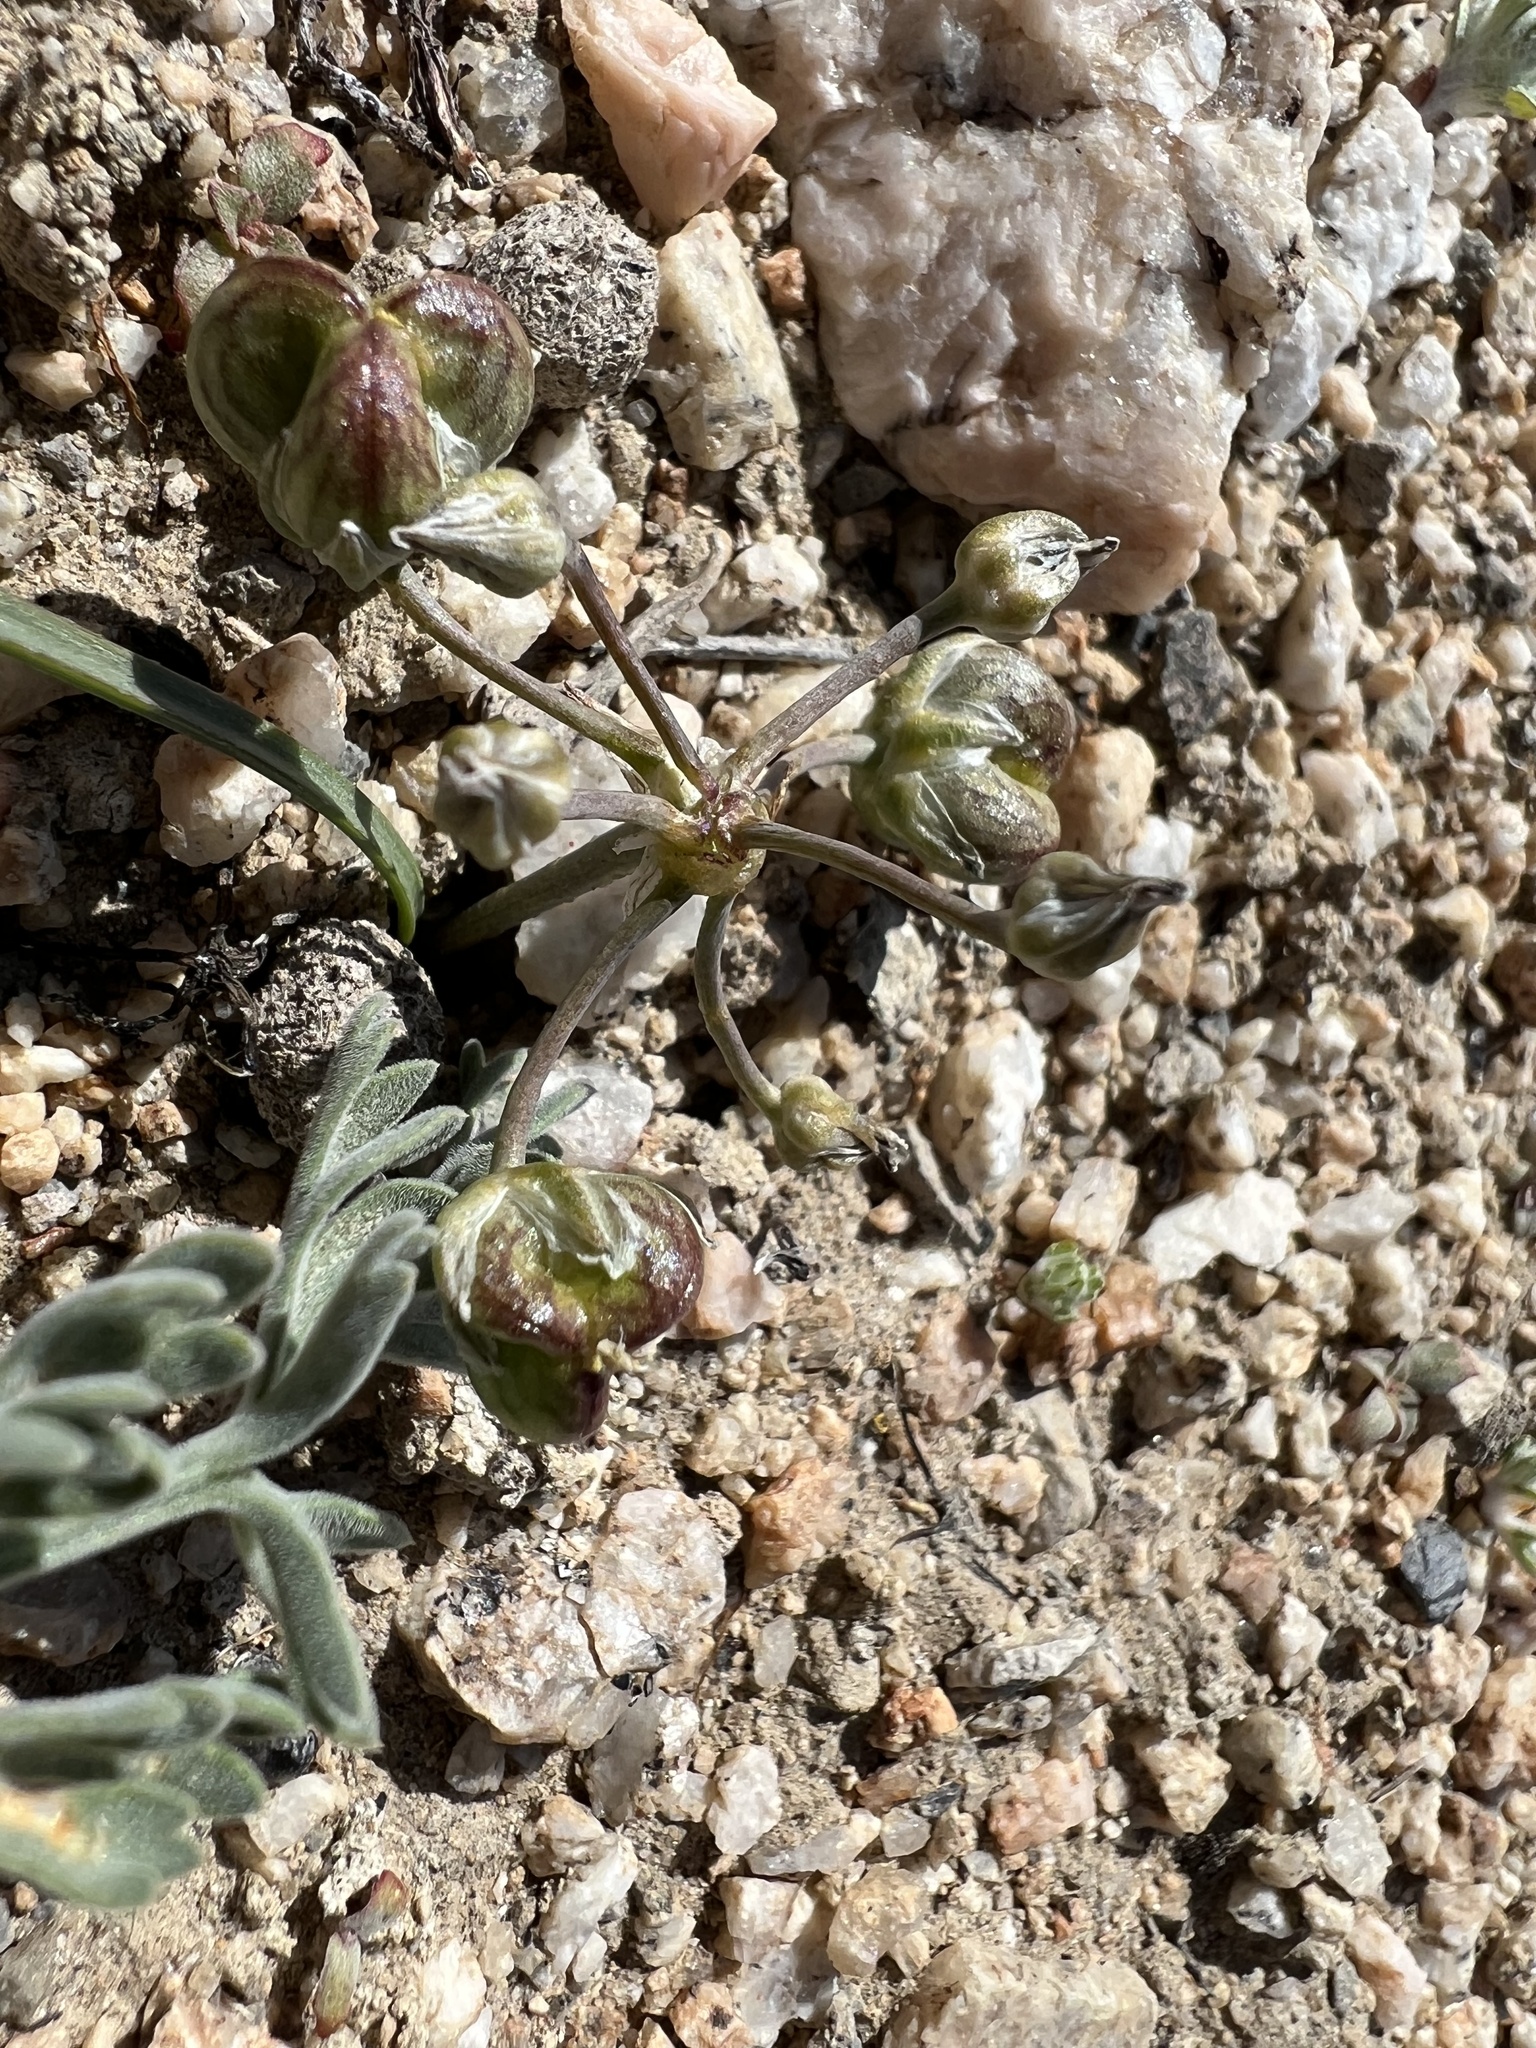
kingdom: Plantae
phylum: Tracheophyta
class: Liliopsida
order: Asparagales
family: Asparagaceae
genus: Muilla
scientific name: Muilla coronata
